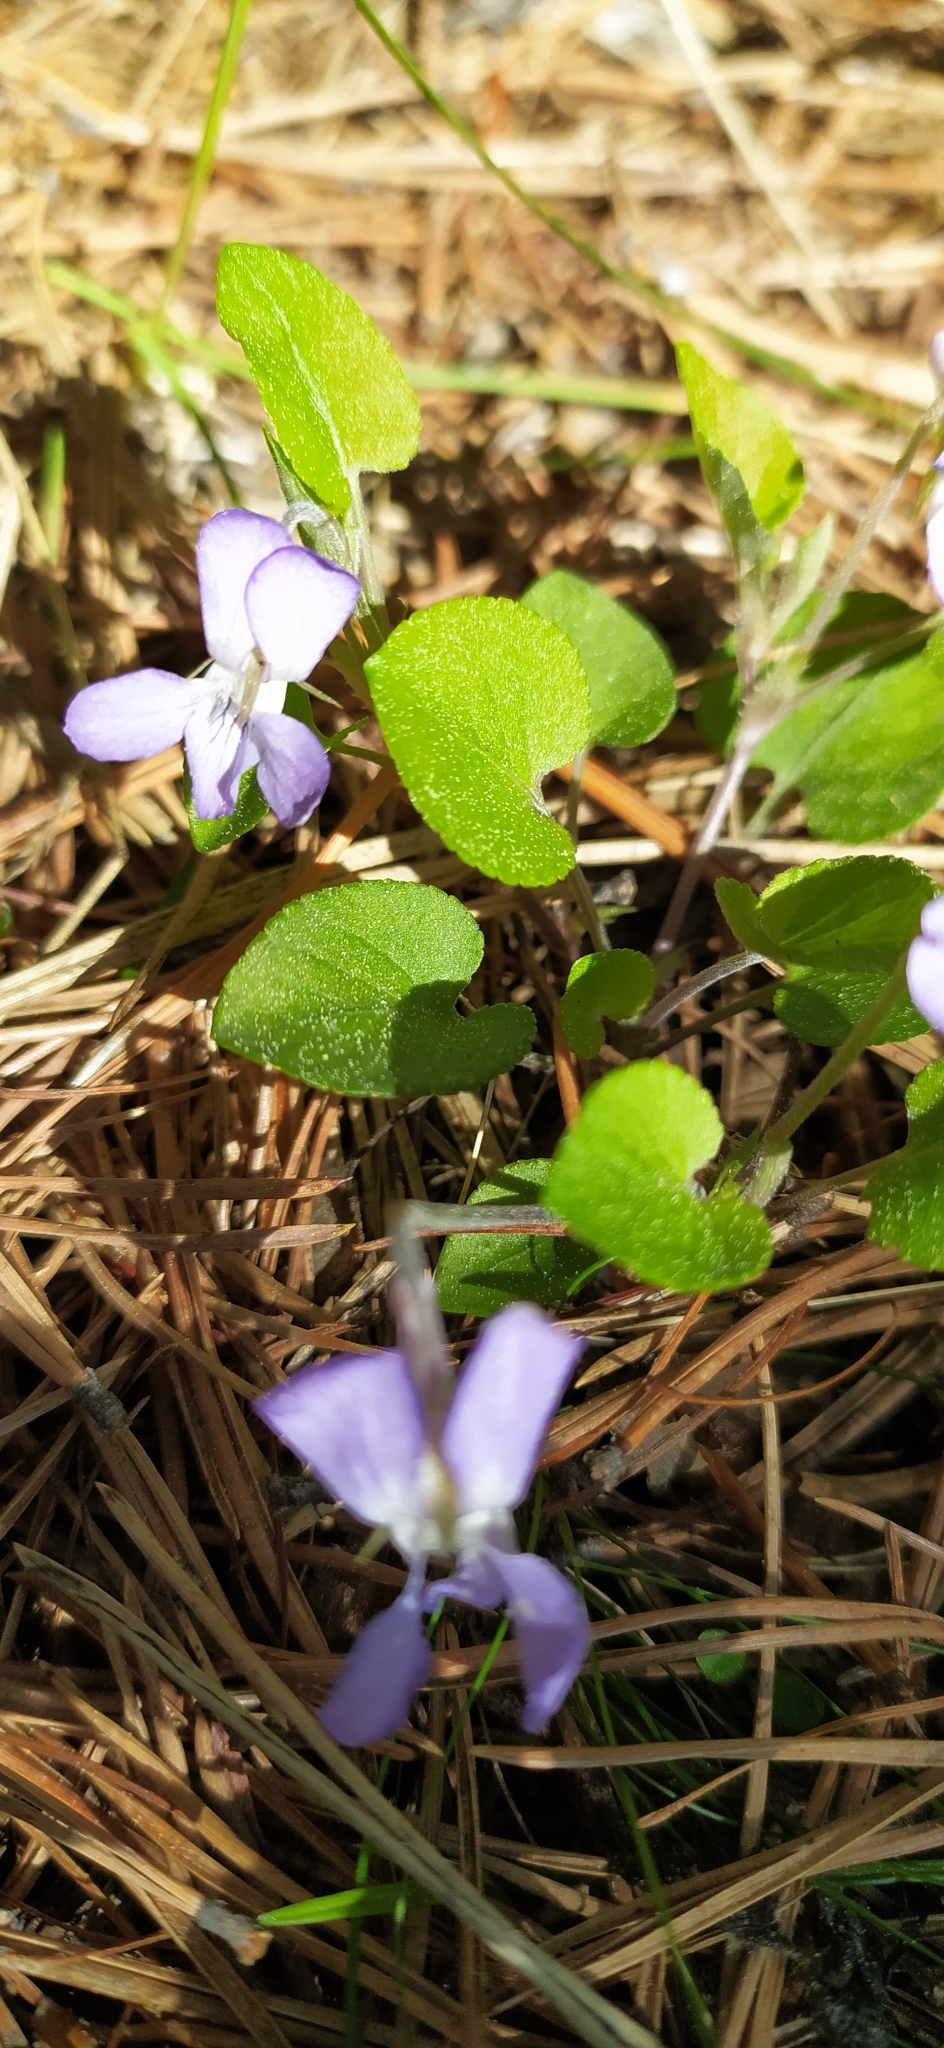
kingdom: Plantae
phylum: Tracheophyta
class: Magnoliopsida
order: Malpighiales
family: Violaceae
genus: Viola
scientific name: Viola rupestris
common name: Teesdale violet
